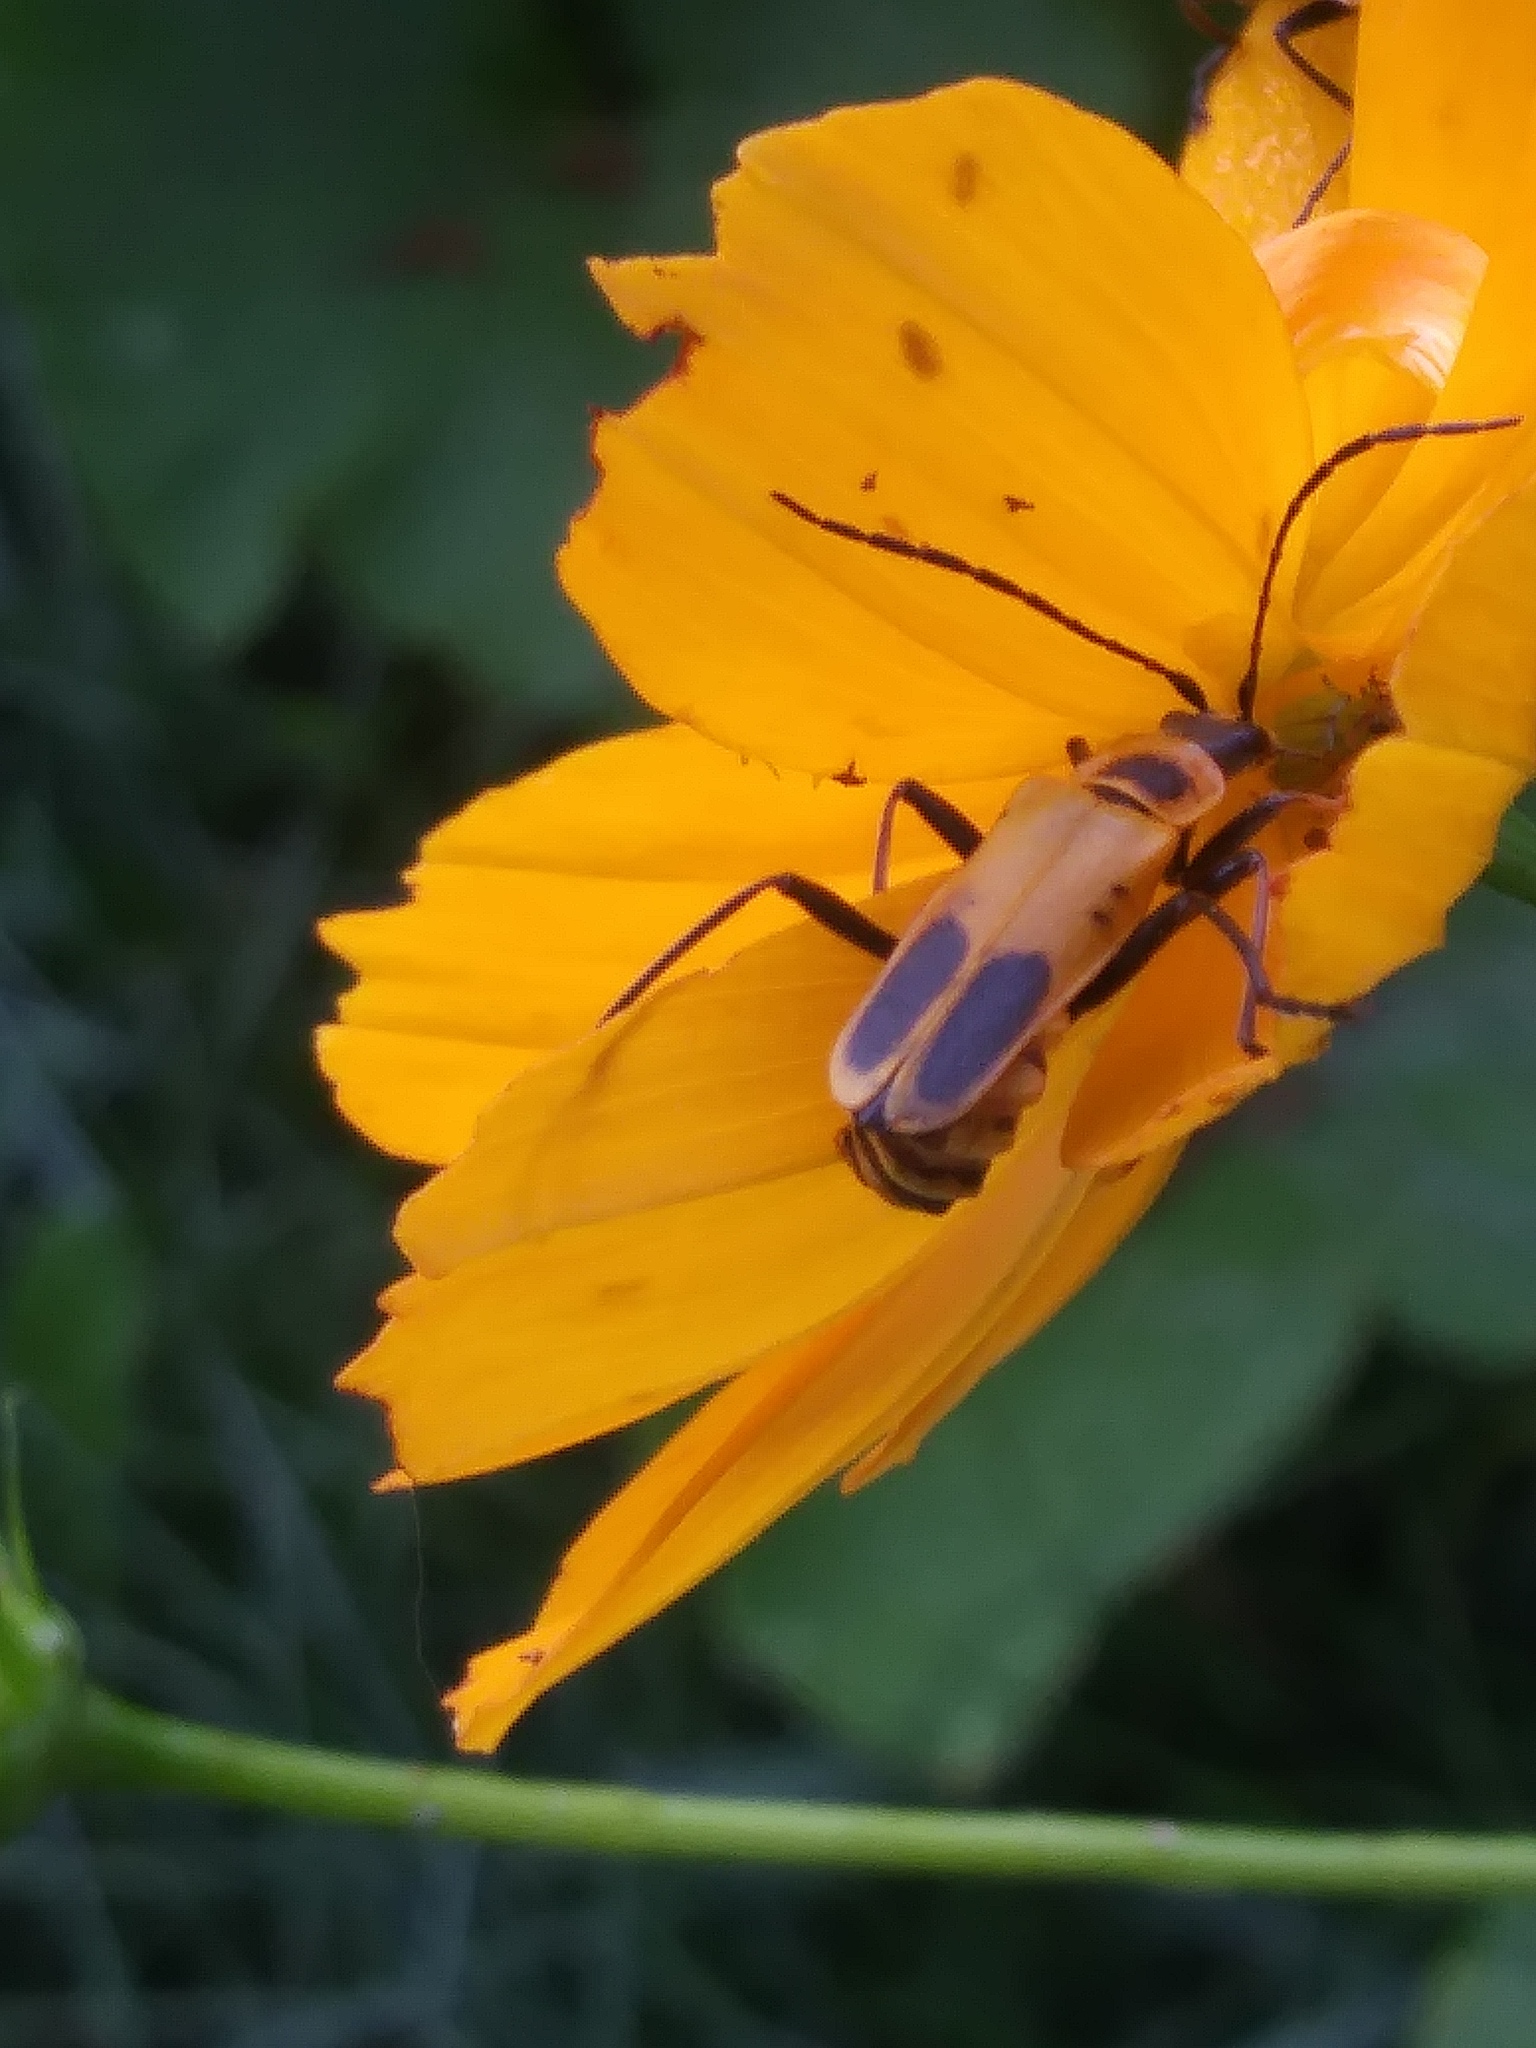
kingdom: Animalia
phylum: Arthropoda
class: Insecta
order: Coleoptera
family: Cantharidae
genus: Chauliognathus
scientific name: Chauliognathus pensylvanicus
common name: Goldenrod soldier beetle
